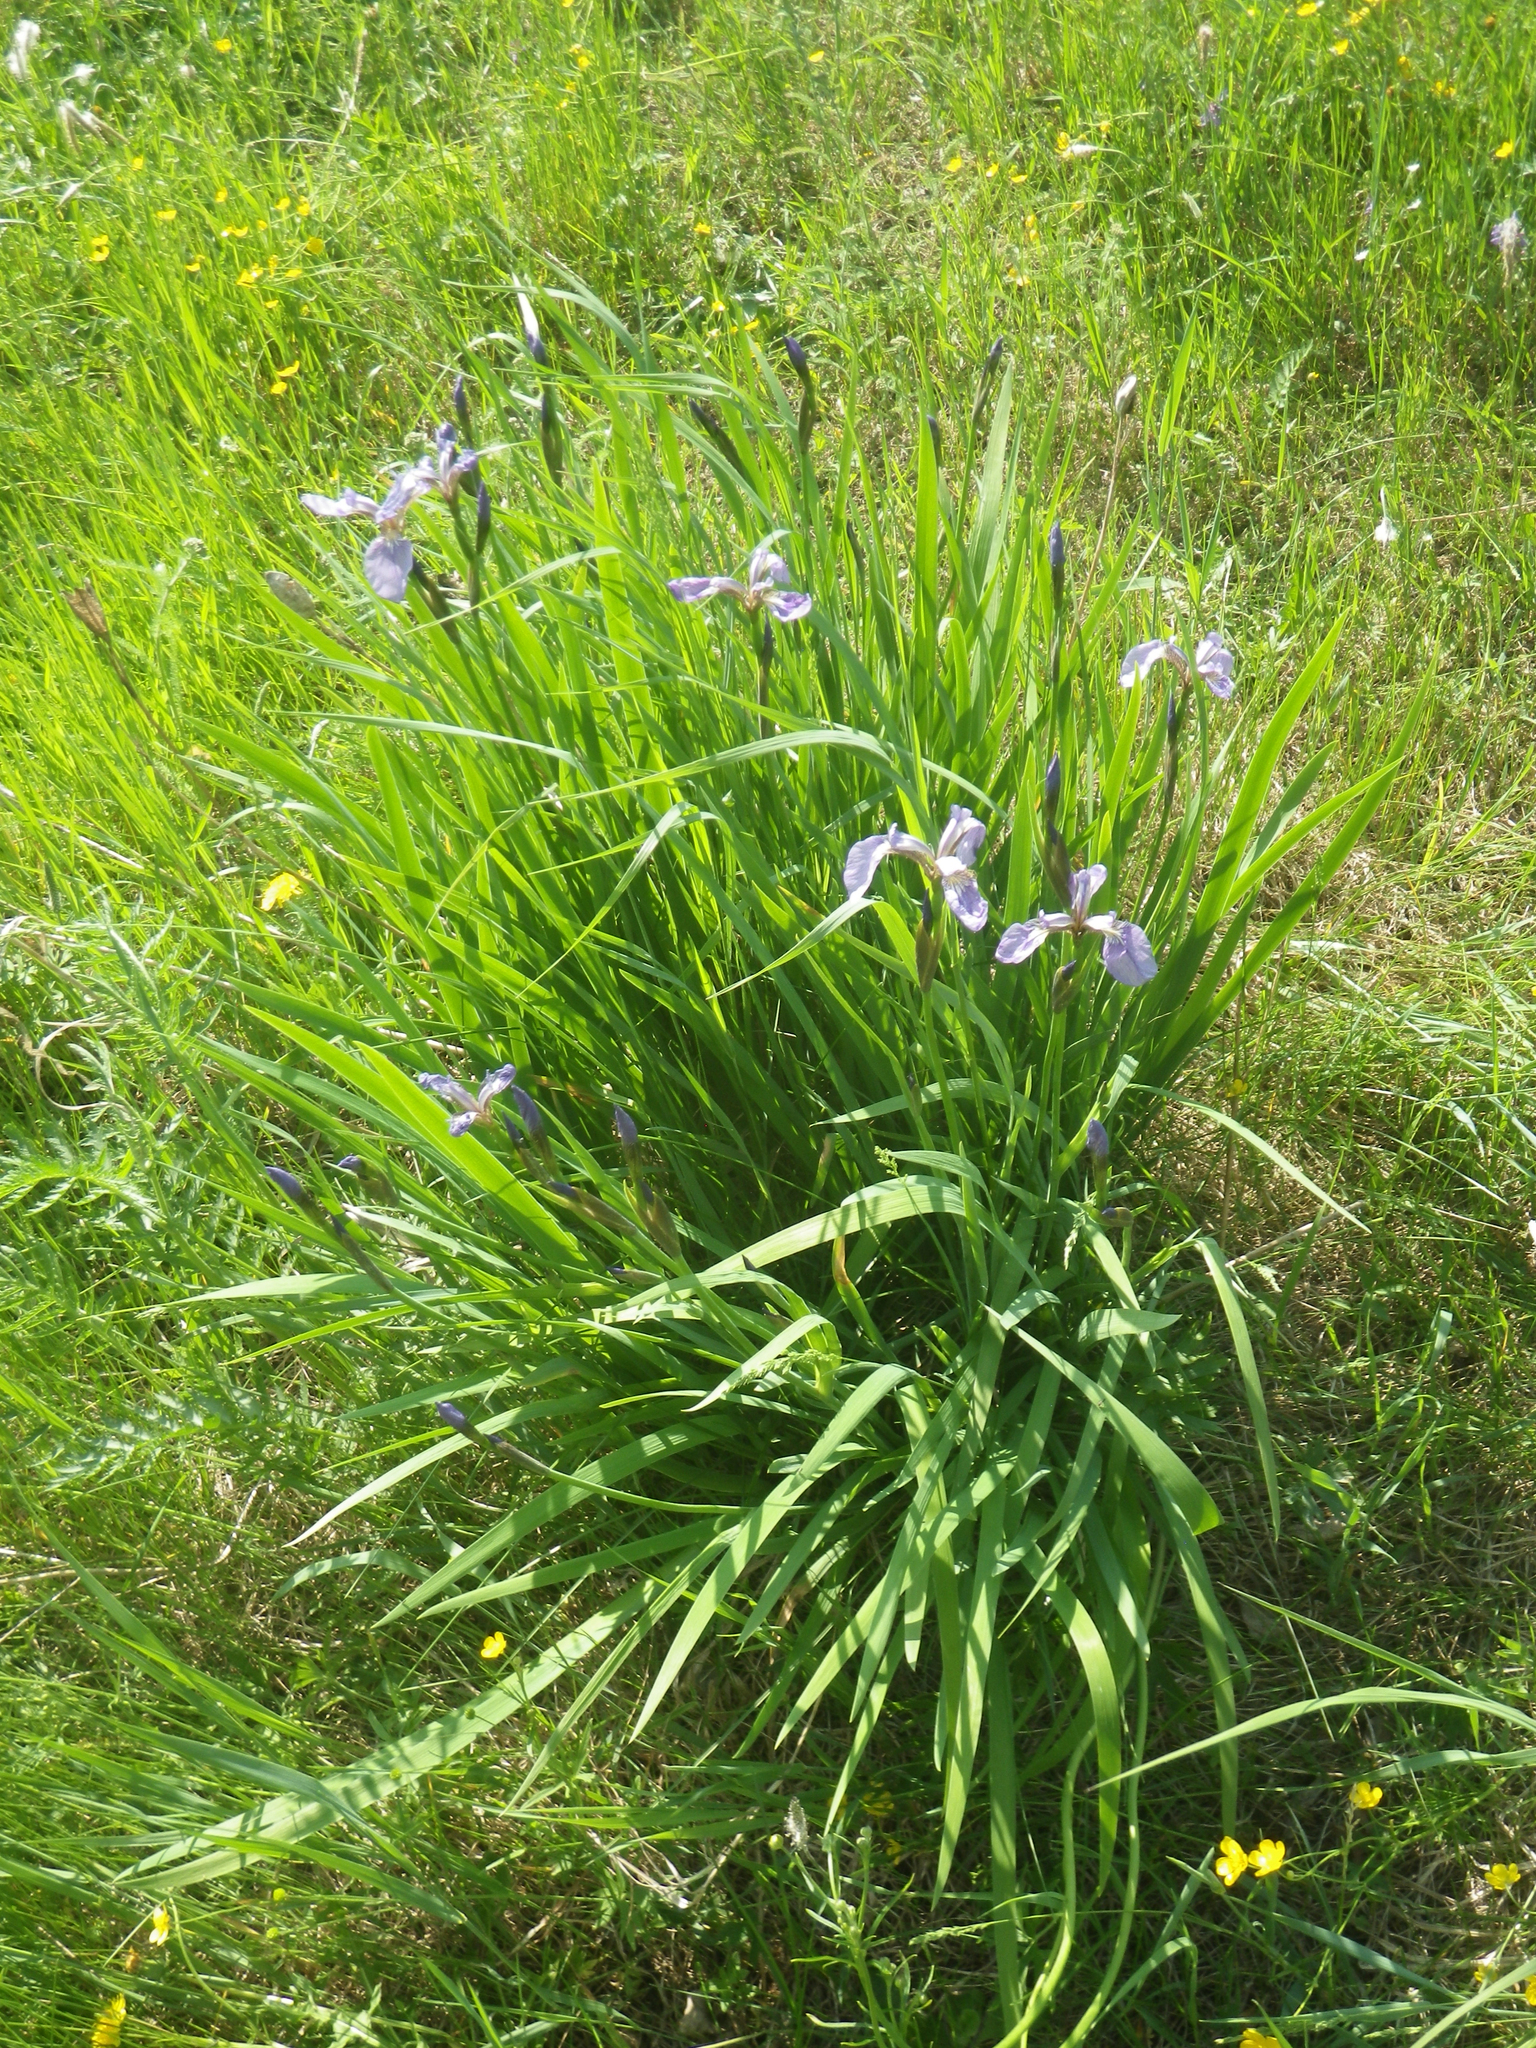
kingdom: Plantae
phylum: Tracheophyta
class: Liliopsida
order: Asparagales
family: Iridaceae
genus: Iris
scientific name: Iris setosa
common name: Arctic blue flag
